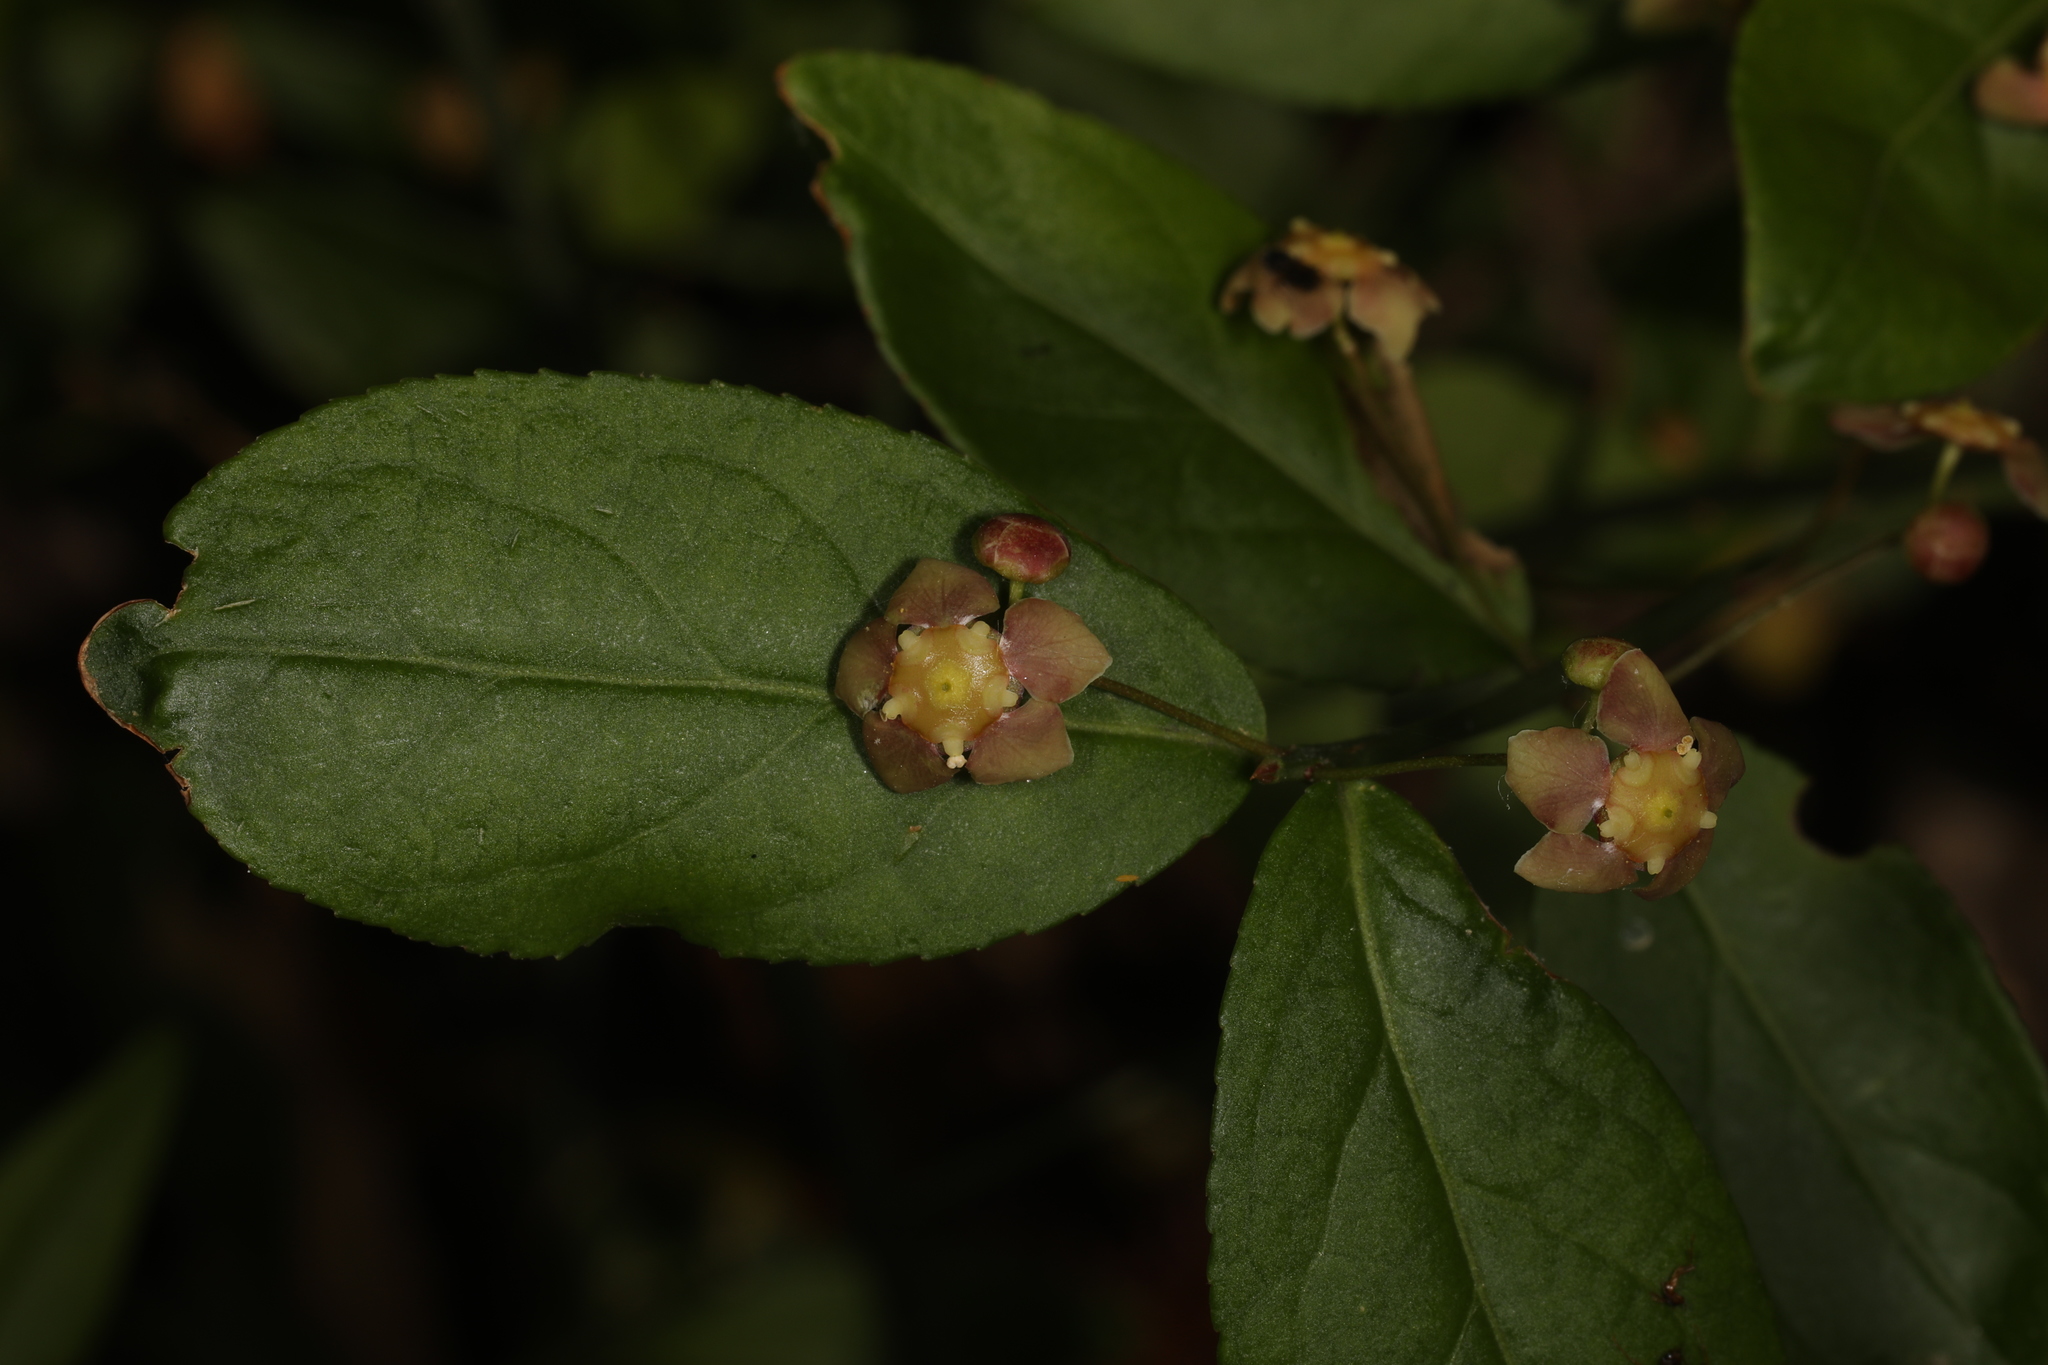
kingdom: Plantae
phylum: Tracheophyta
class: Magnoliopsida
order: Celastrales
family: Celastraceae
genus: Euonymus
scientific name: Euonymus americanus
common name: Bursting-heart
